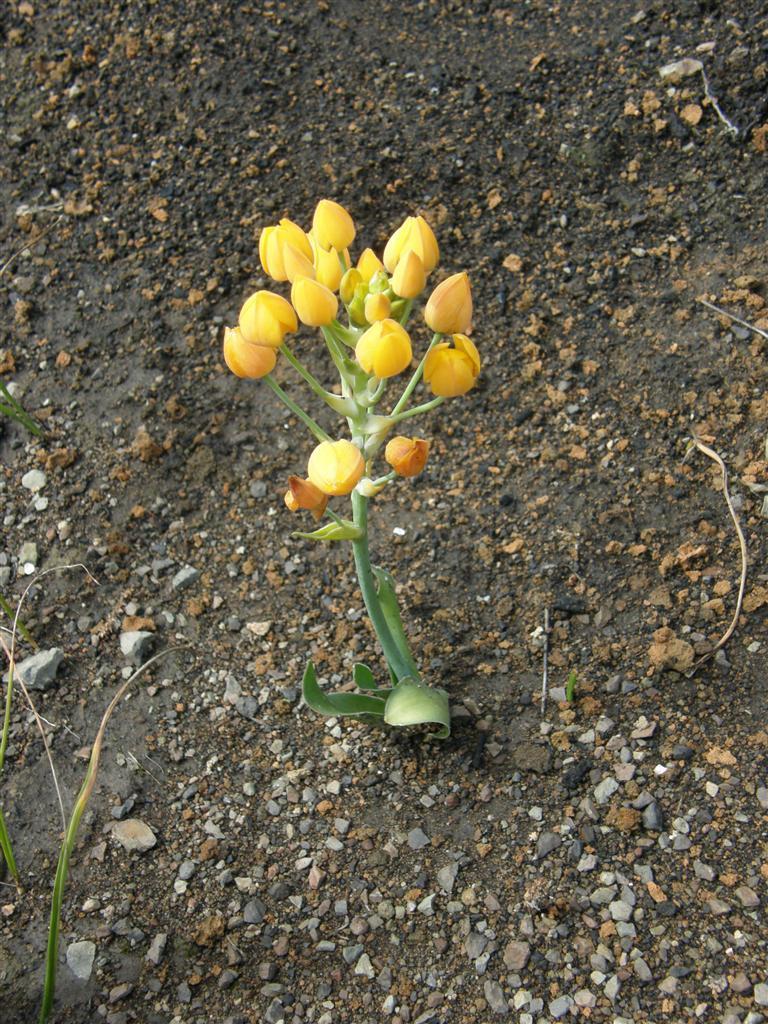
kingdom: Plantae
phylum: Tracheophyta
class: Liliopsida
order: Asparagales
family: Asparagaceae
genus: Ornithogalum
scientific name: Ornithogalum dubium
